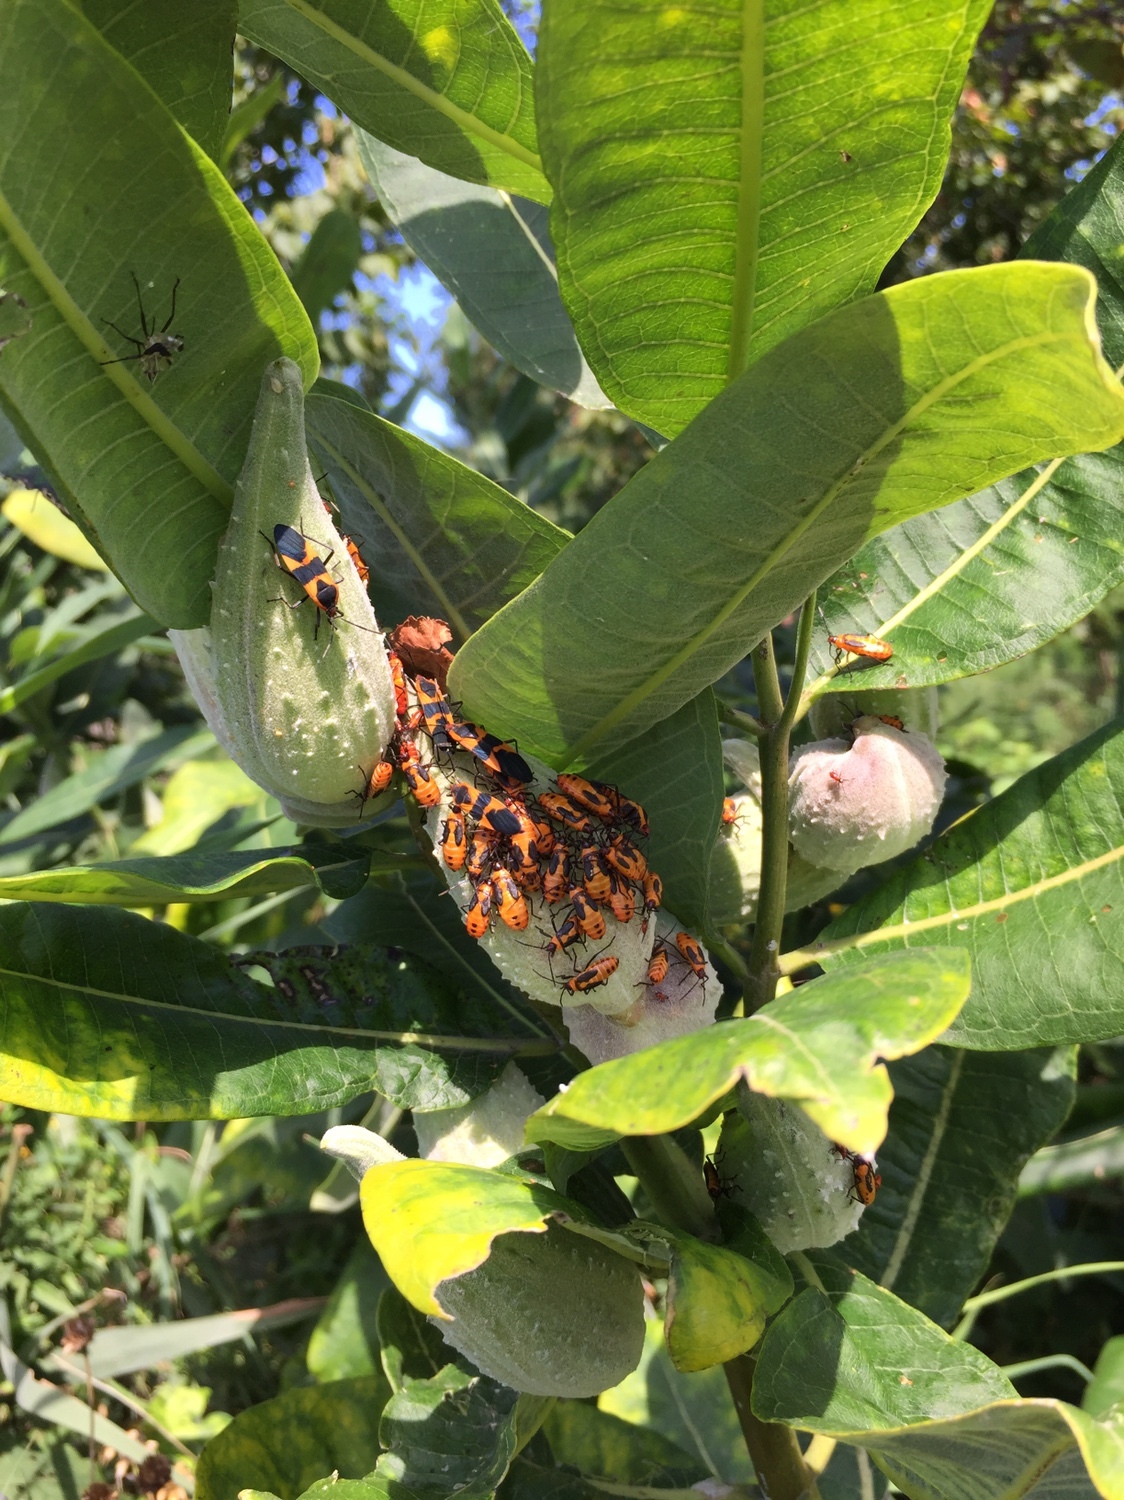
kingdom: Animalia
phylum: Arthropoda
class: Insecta
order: Hemiptera
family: Lygaeidae
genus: Oncopeltus
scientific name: Oncopeltus fasciatus
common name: Large milkweed bug
